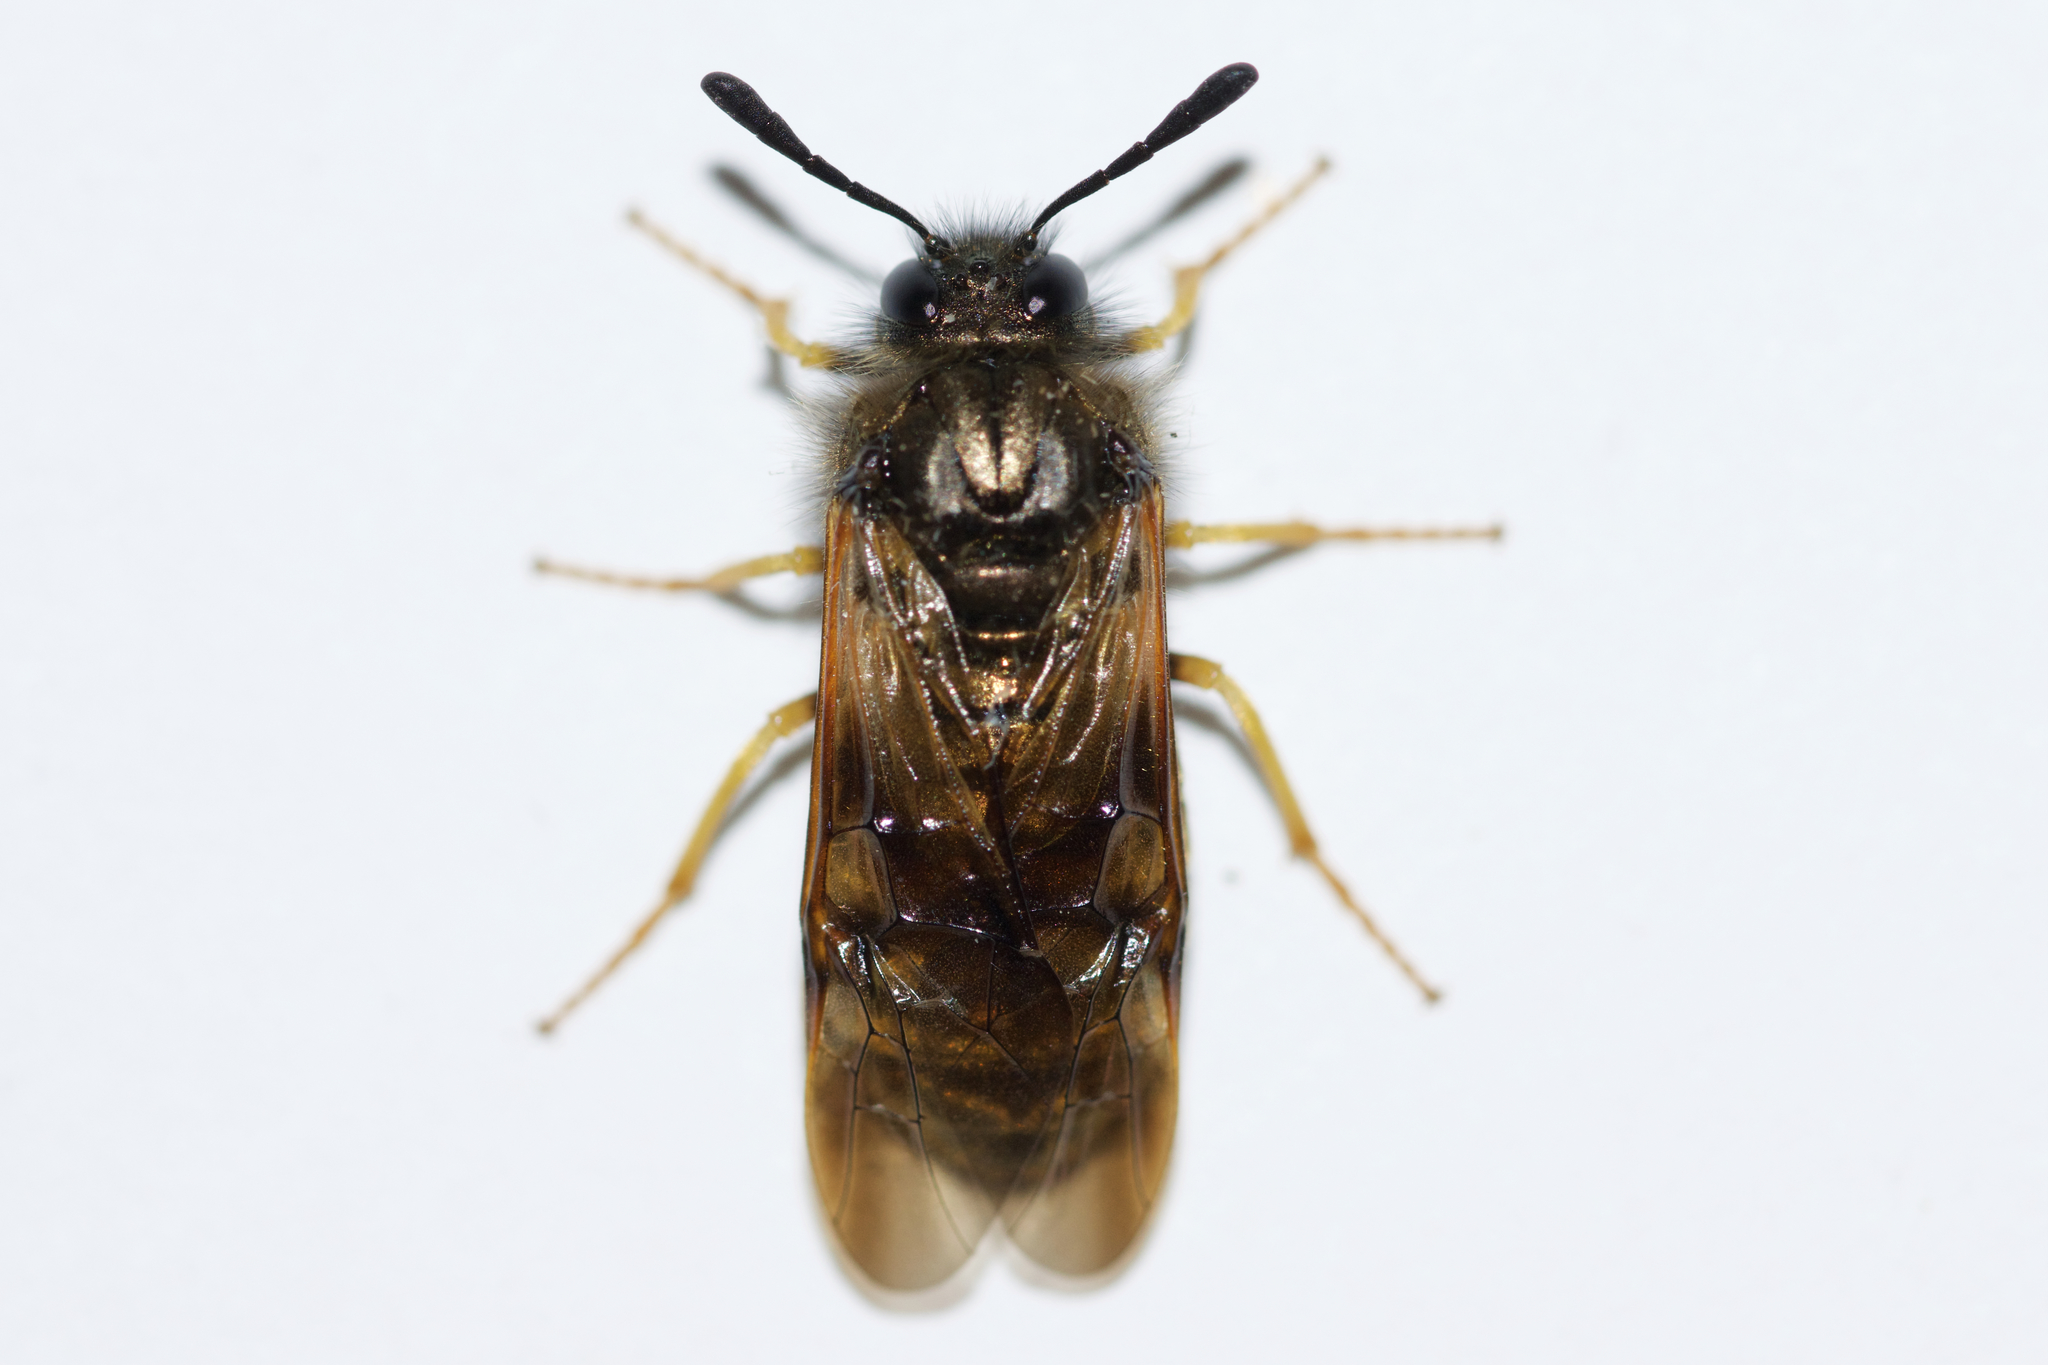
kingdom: Animalia
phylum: Arthropoda
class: Insecta
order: Hymenoptera
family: Cimbicidae
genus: Abia
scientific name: Abia lonicerae
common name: Cimbicid sawfly
